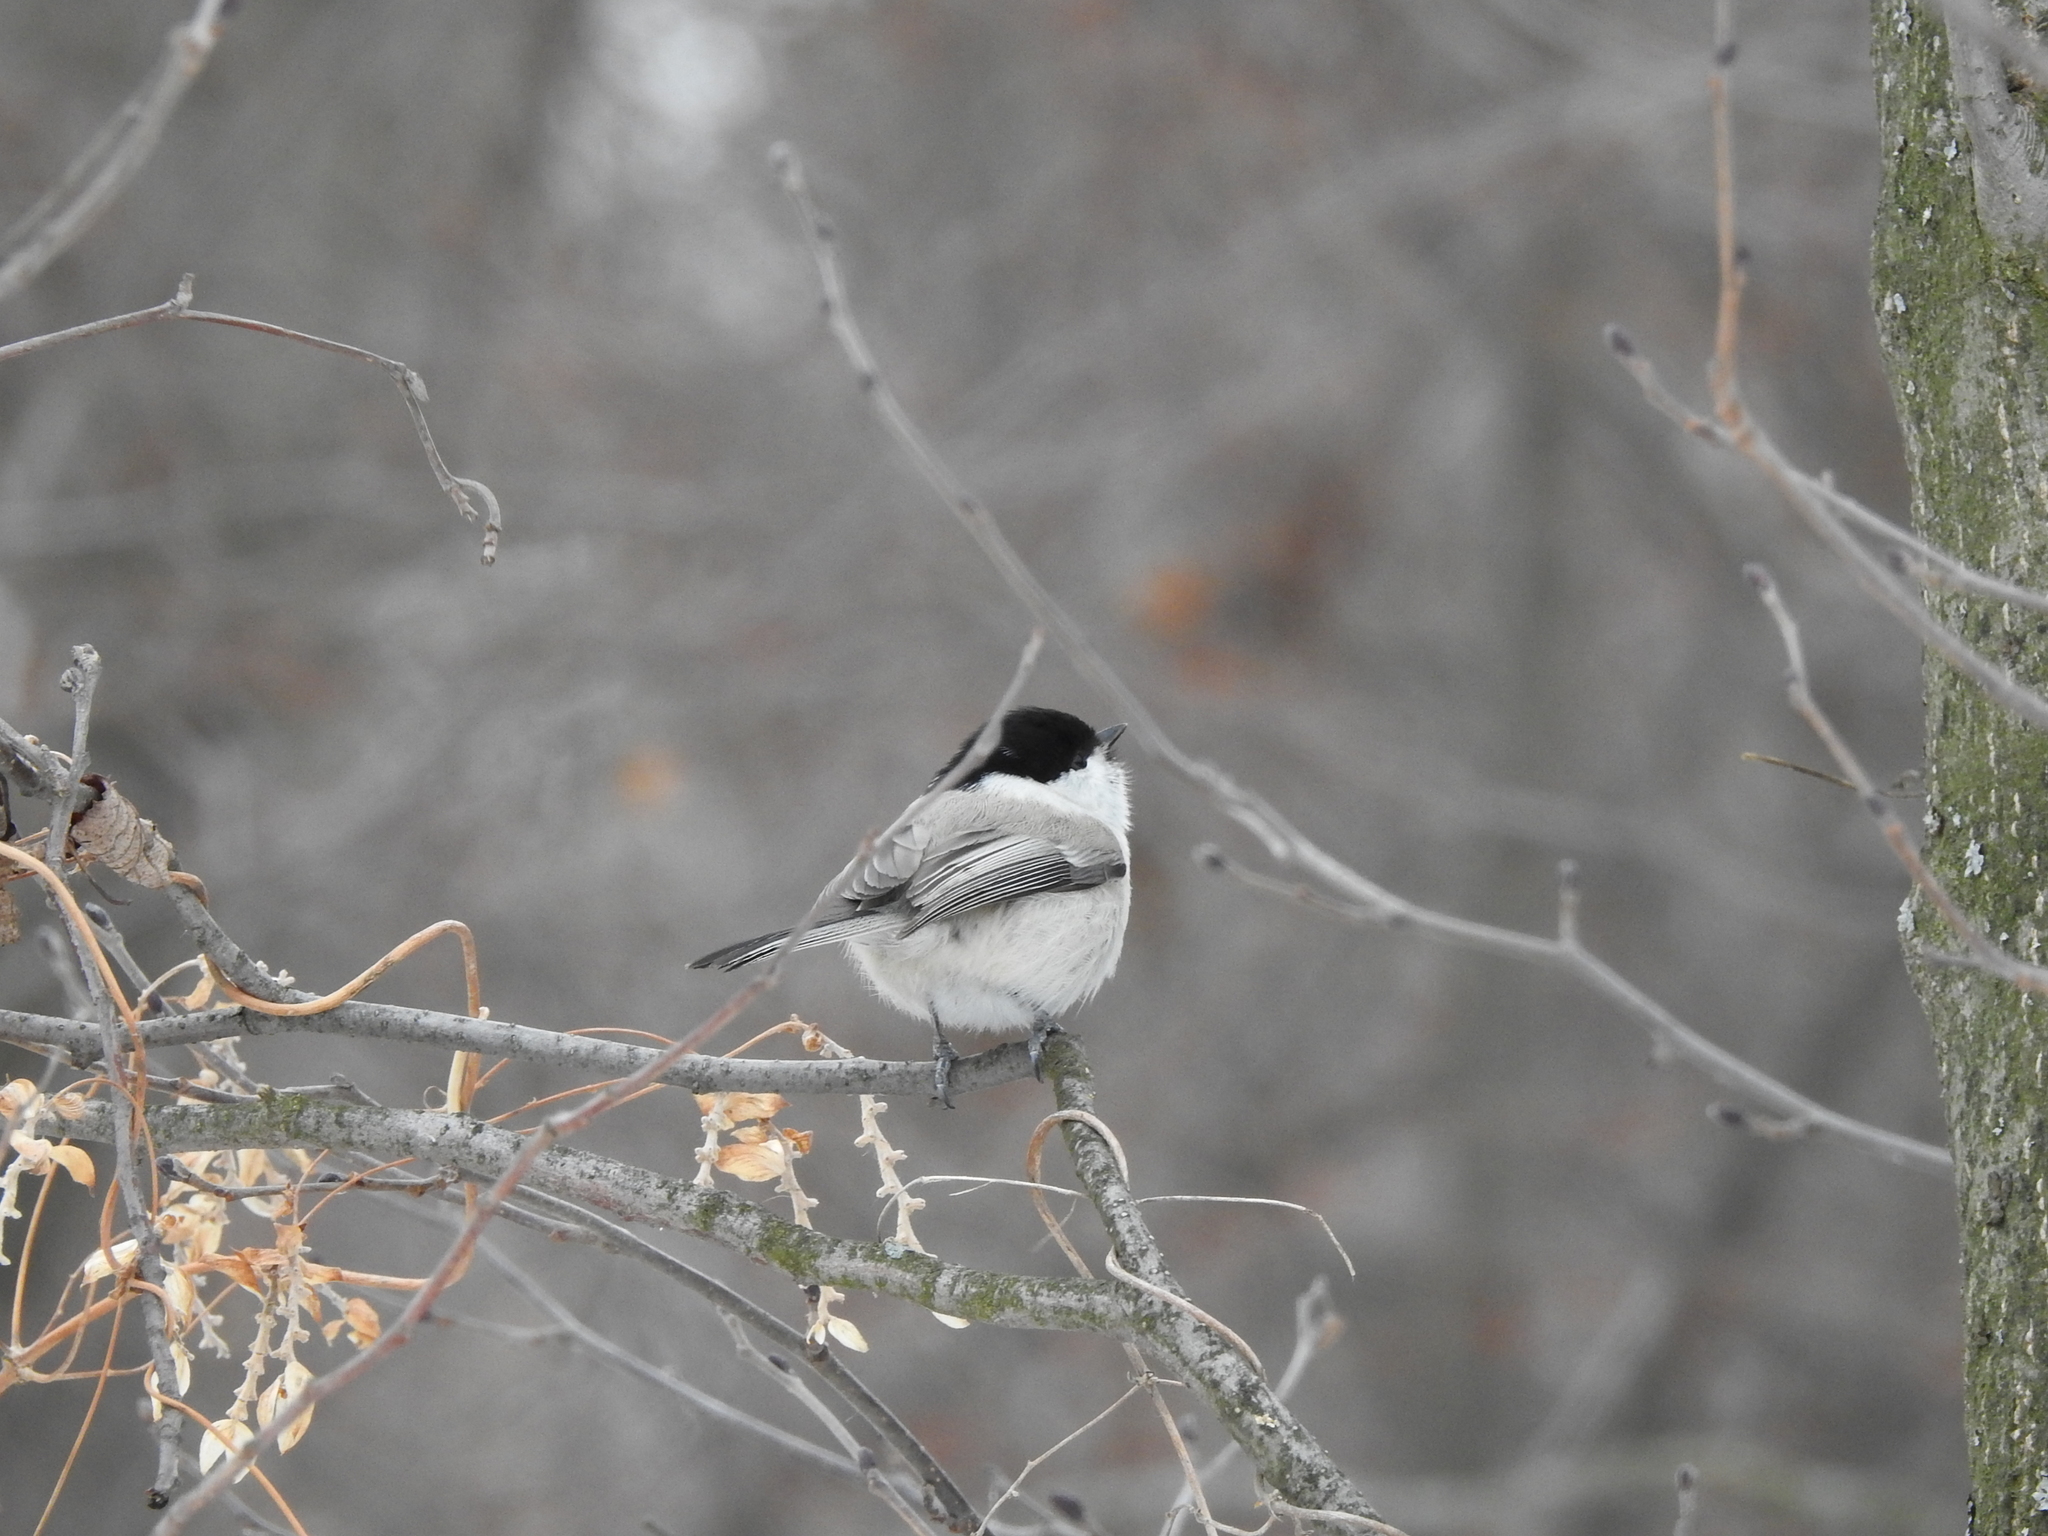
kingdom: Animalia
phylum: Chordata
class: Aves
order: Passeriformes
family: Paridae
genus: Poecile
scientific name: Poecile montanus
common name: Willow tit
